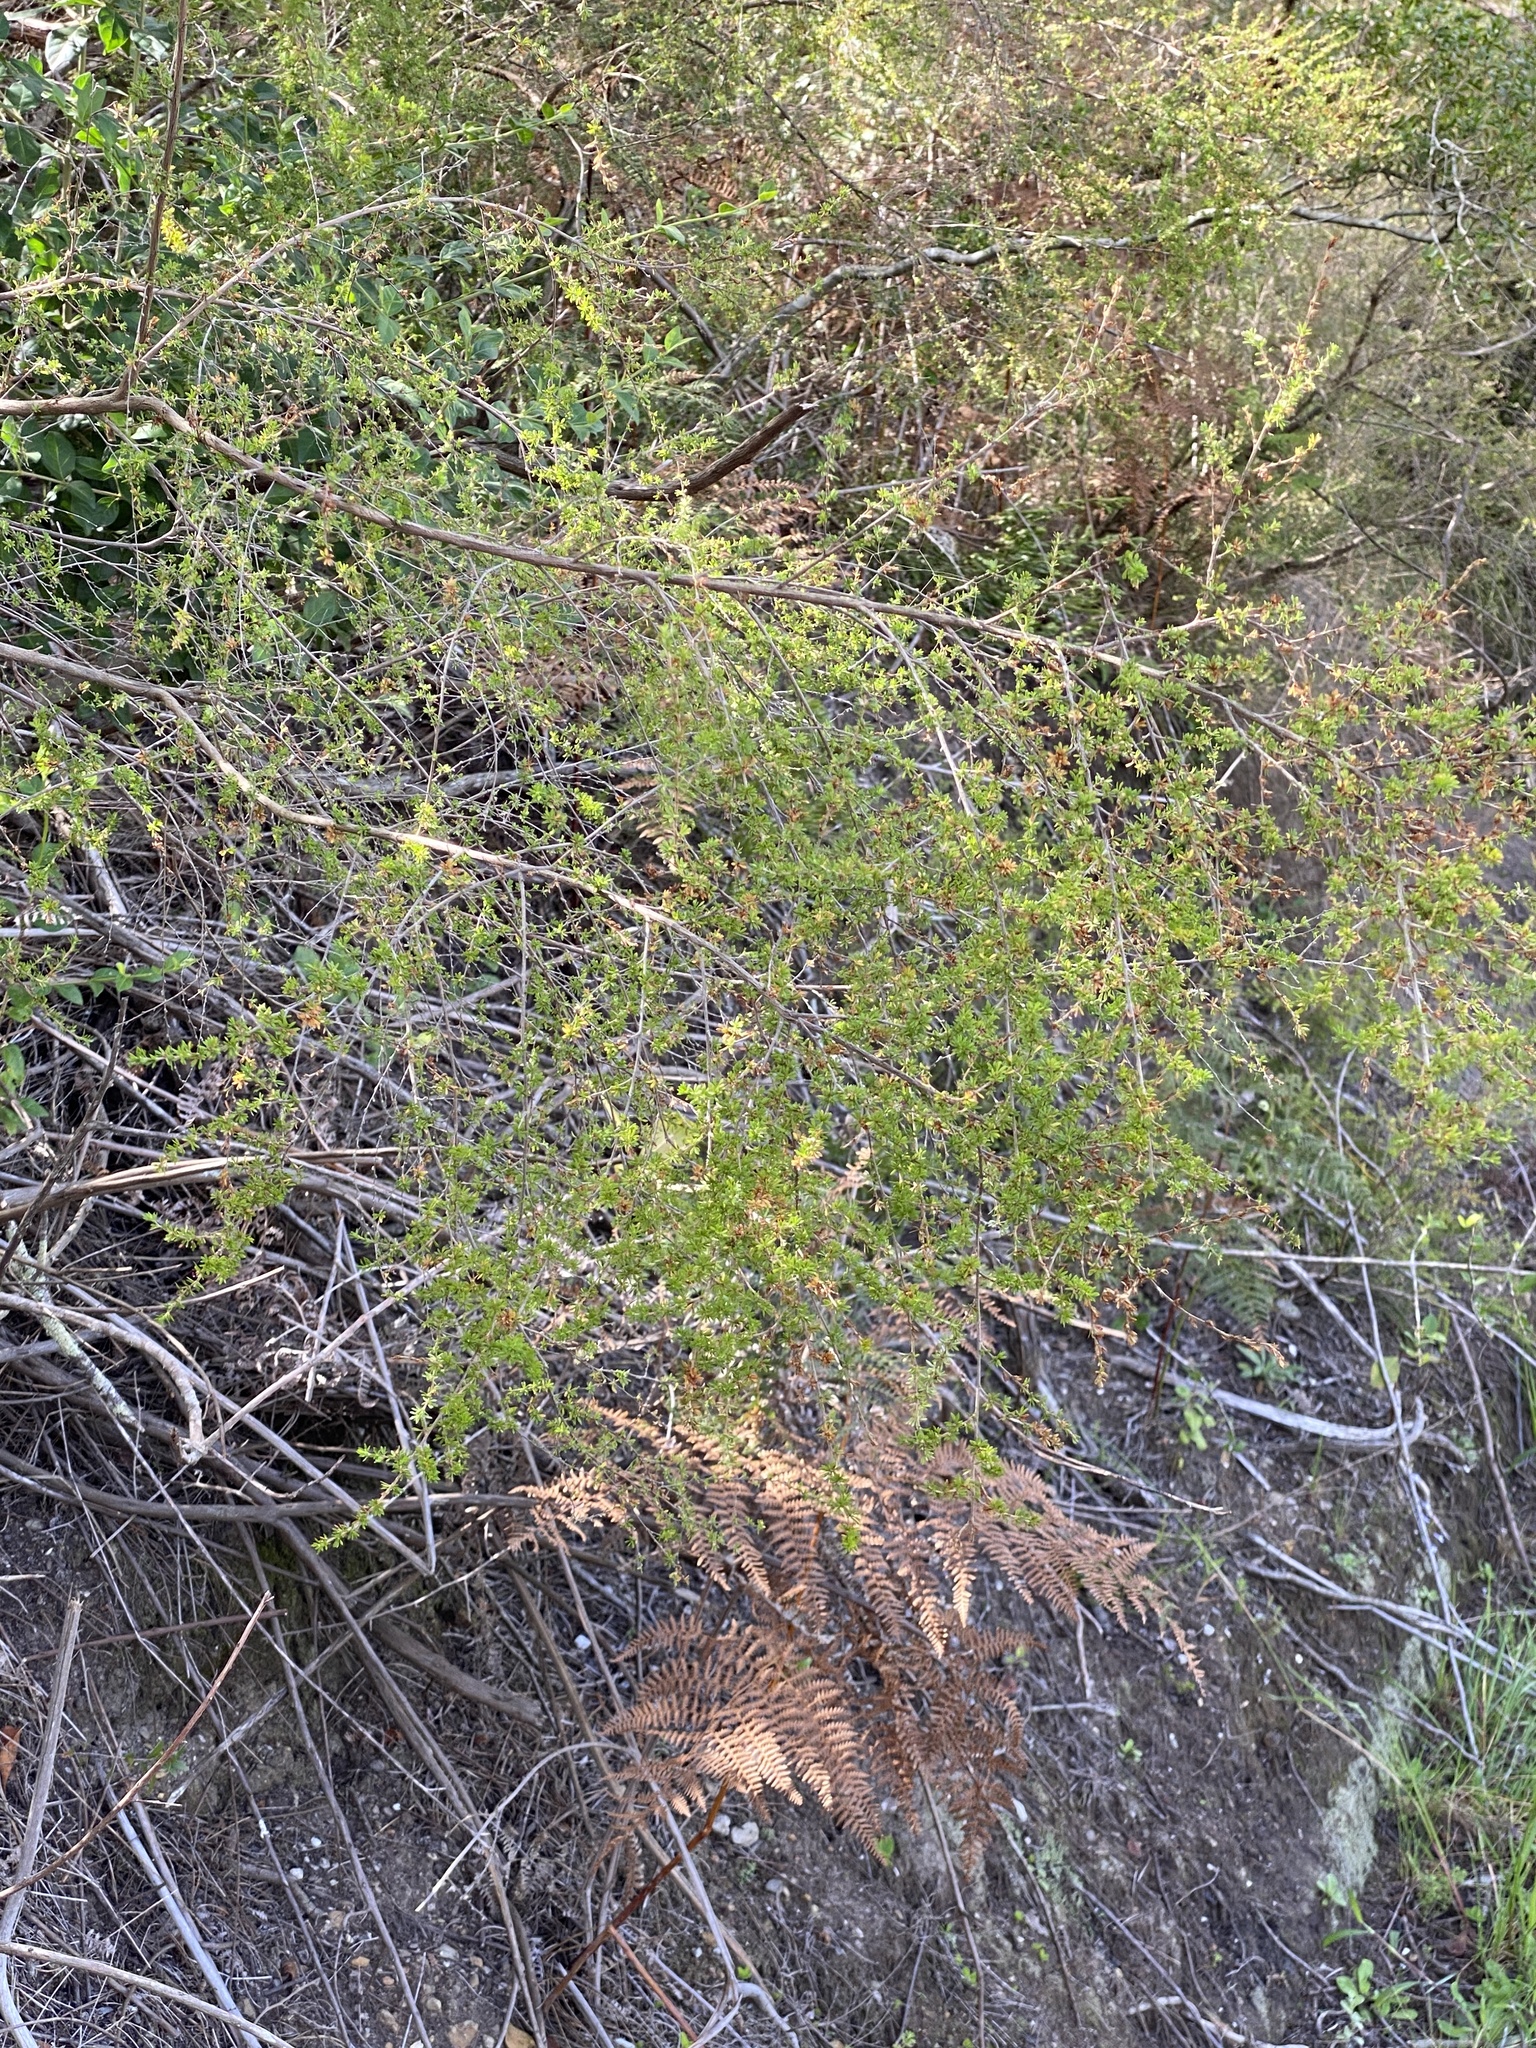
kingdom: Plantae
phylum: Tracheophyta
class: Magnoliopsida
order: Rosales
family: Rosaceae
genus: Cliffortia
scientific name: Cliffortia serpyllifolia
